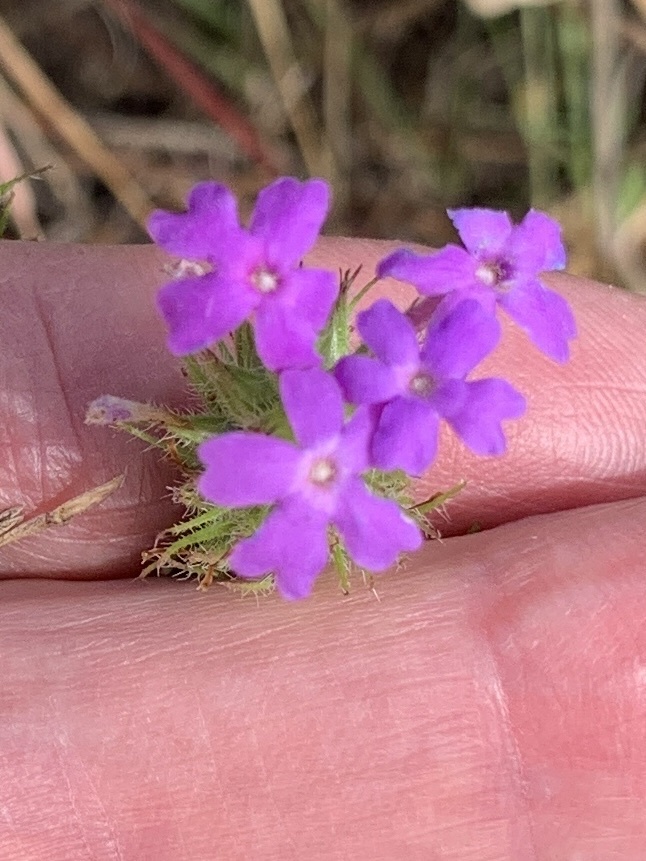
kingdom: Plantae
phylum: Tracheophyta
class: Magnoliopsida
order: Lamiales
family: Verbenaceae
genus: Verbena
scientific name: Verbena bipinnatifida
